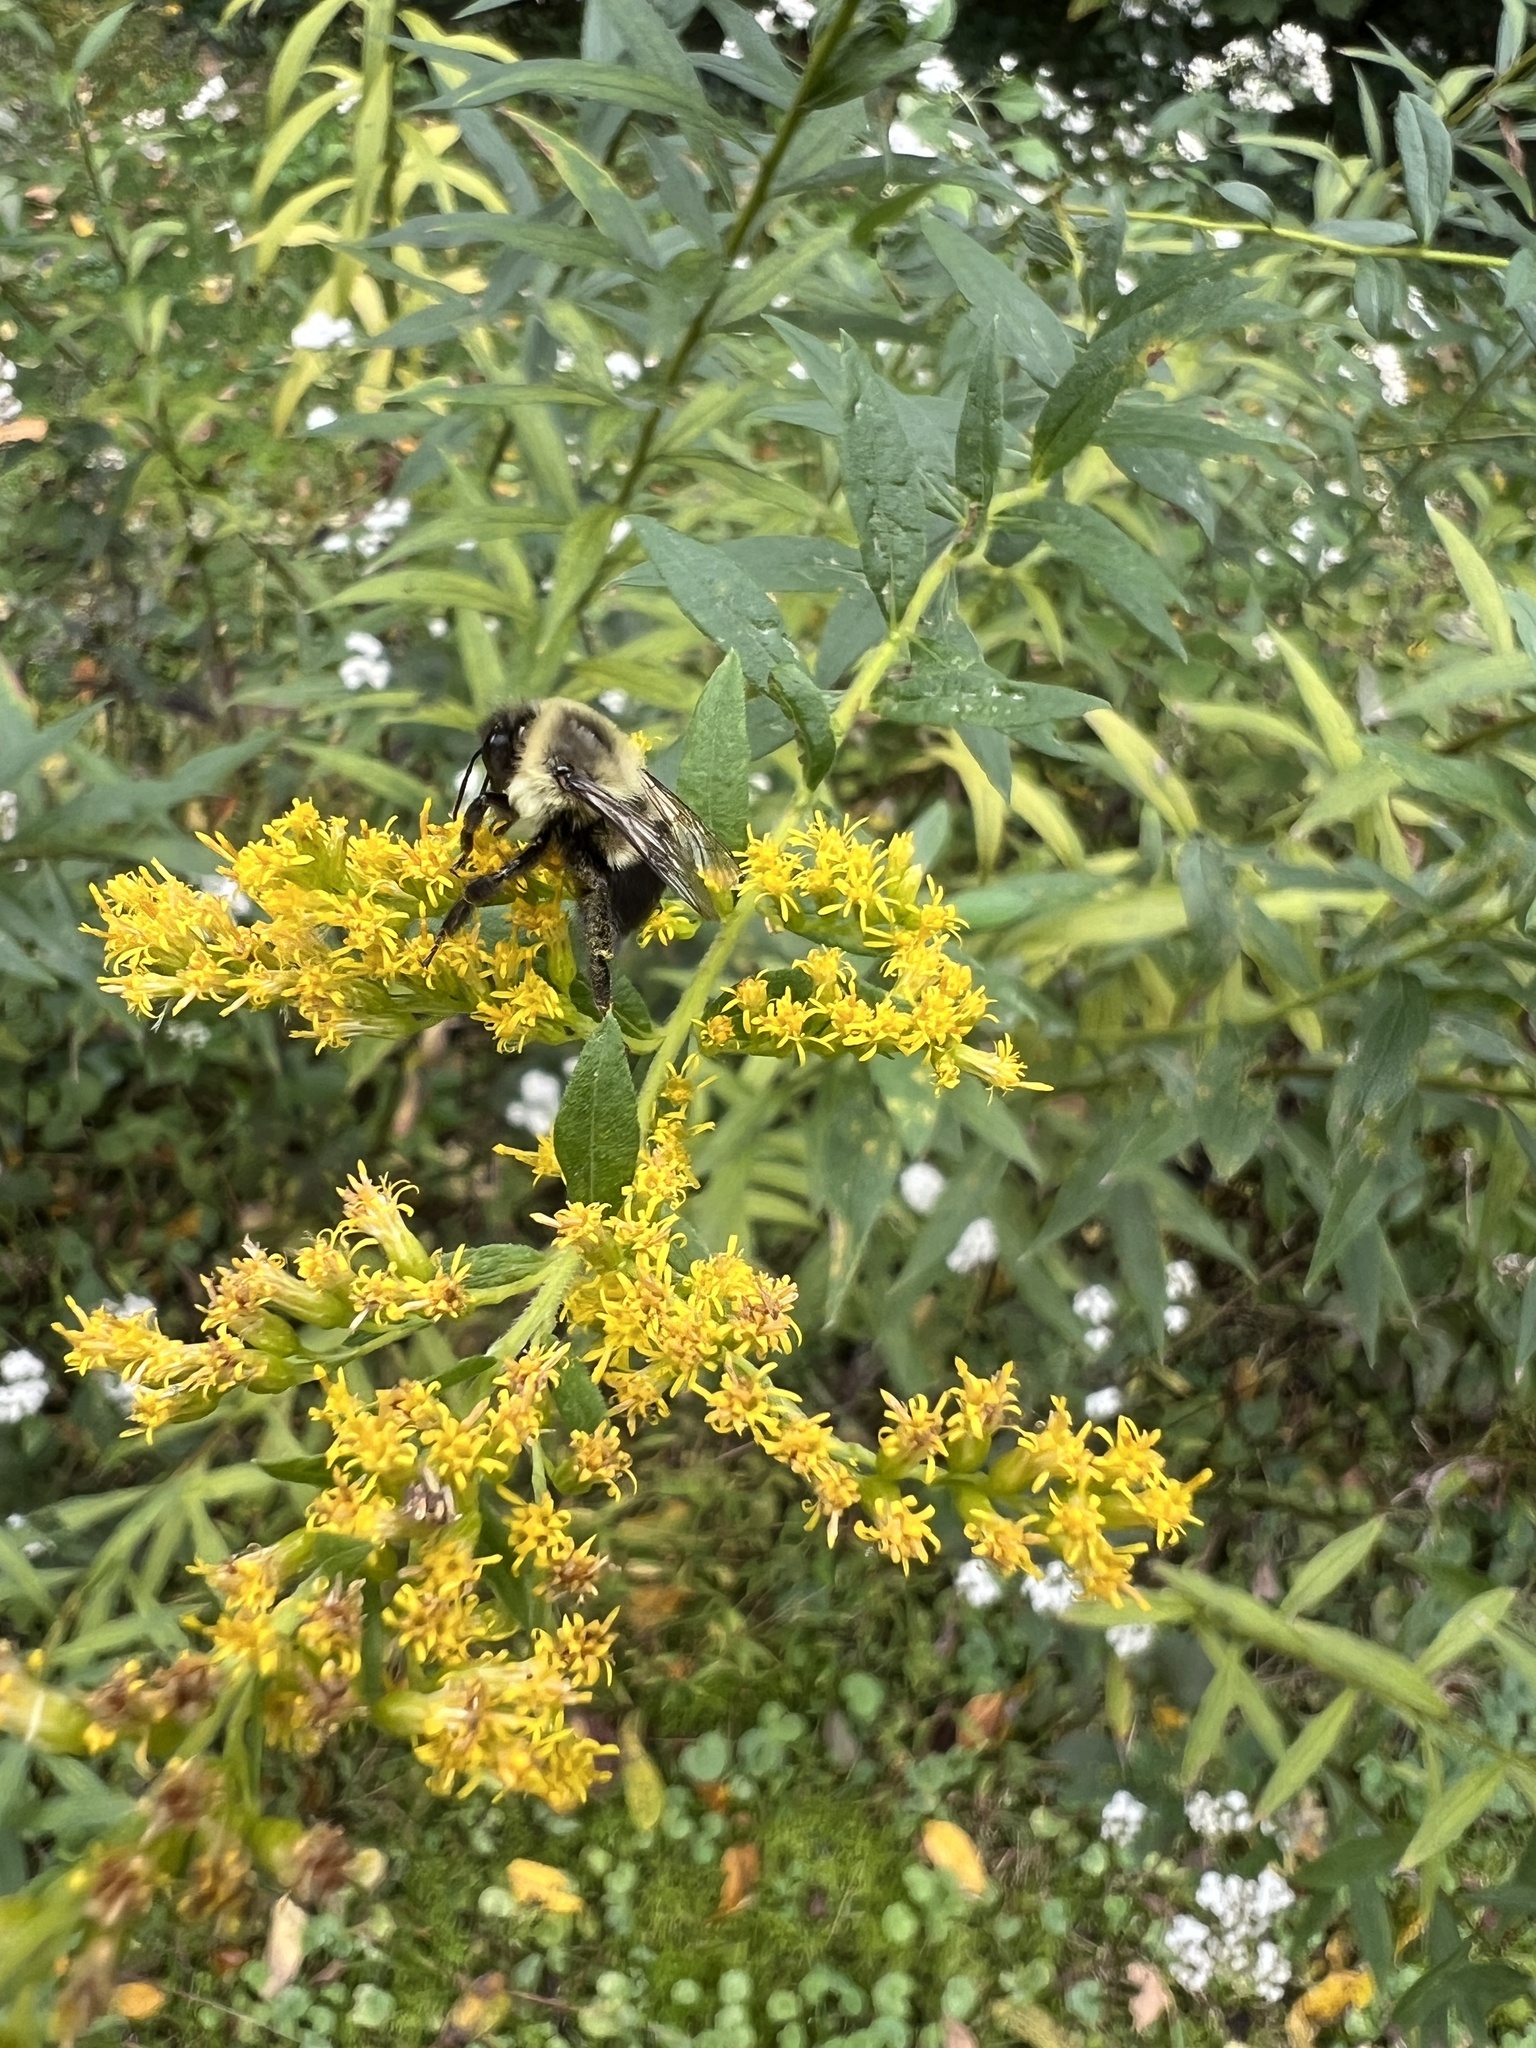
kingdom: Animalia
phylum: Arthropoda
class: Insecta
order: Hymenoptera
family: Apidae
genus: Bombus
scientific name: Bombus impatiens
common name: Common eastern bumble bee
